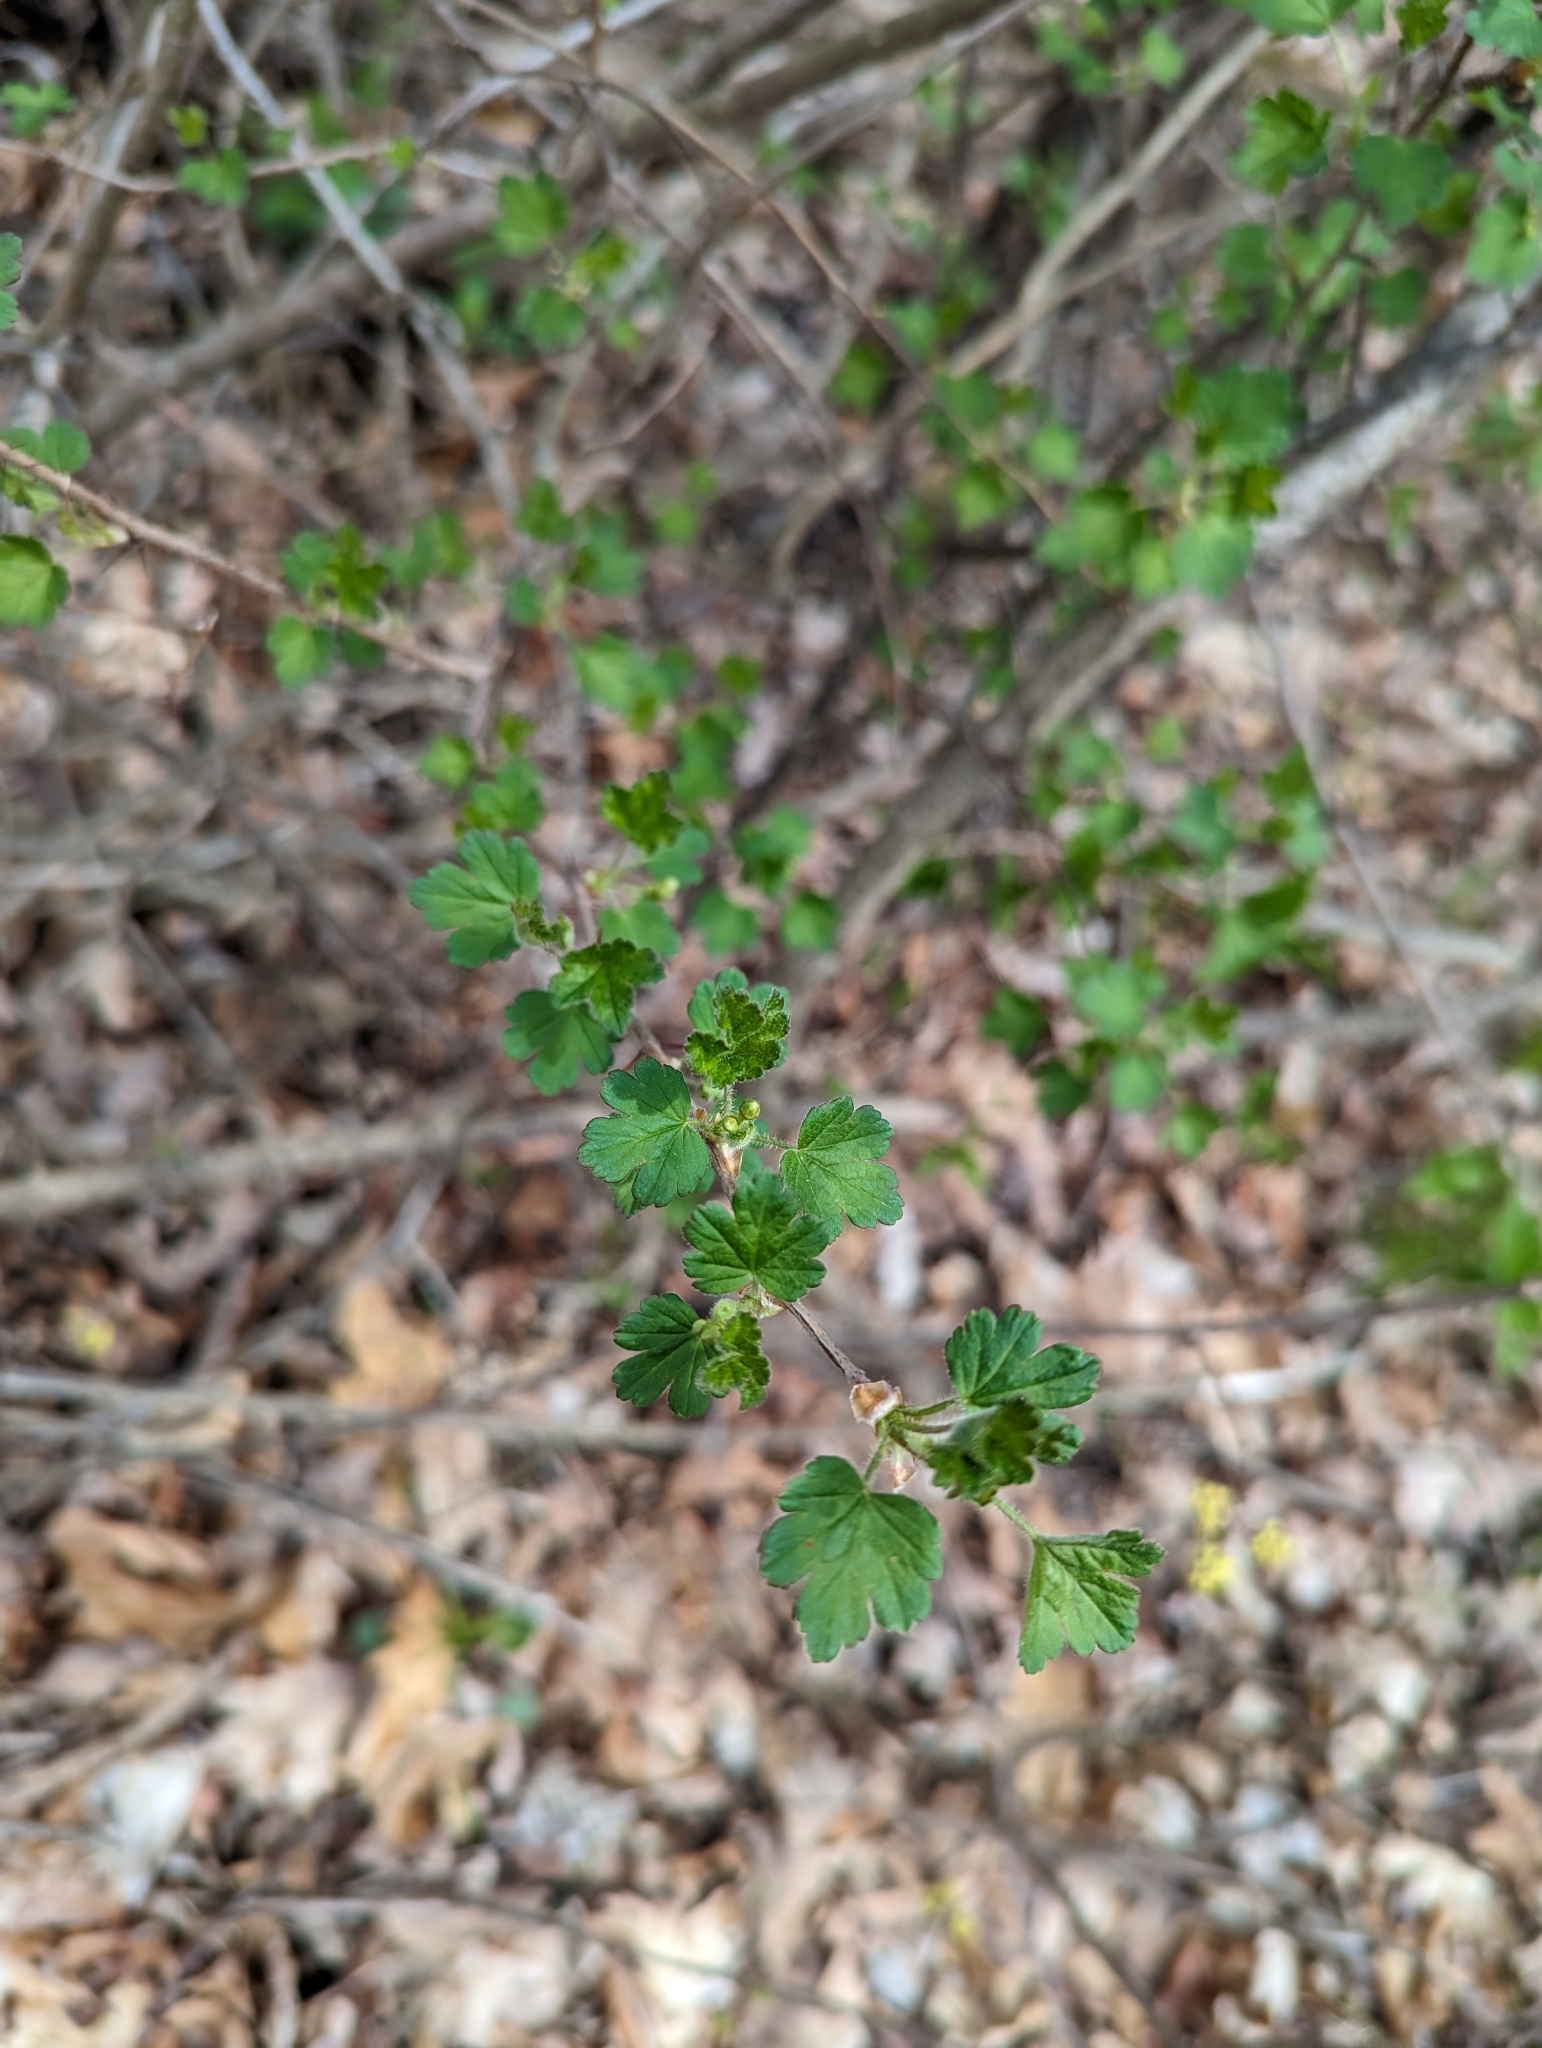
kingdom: Plantae
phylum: Tracheophyta
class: Magnoliopsida
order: Saxifragales
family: Grossulariaceae
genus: Ribes
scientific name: Ribes cynosbati
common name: American gooseberry
